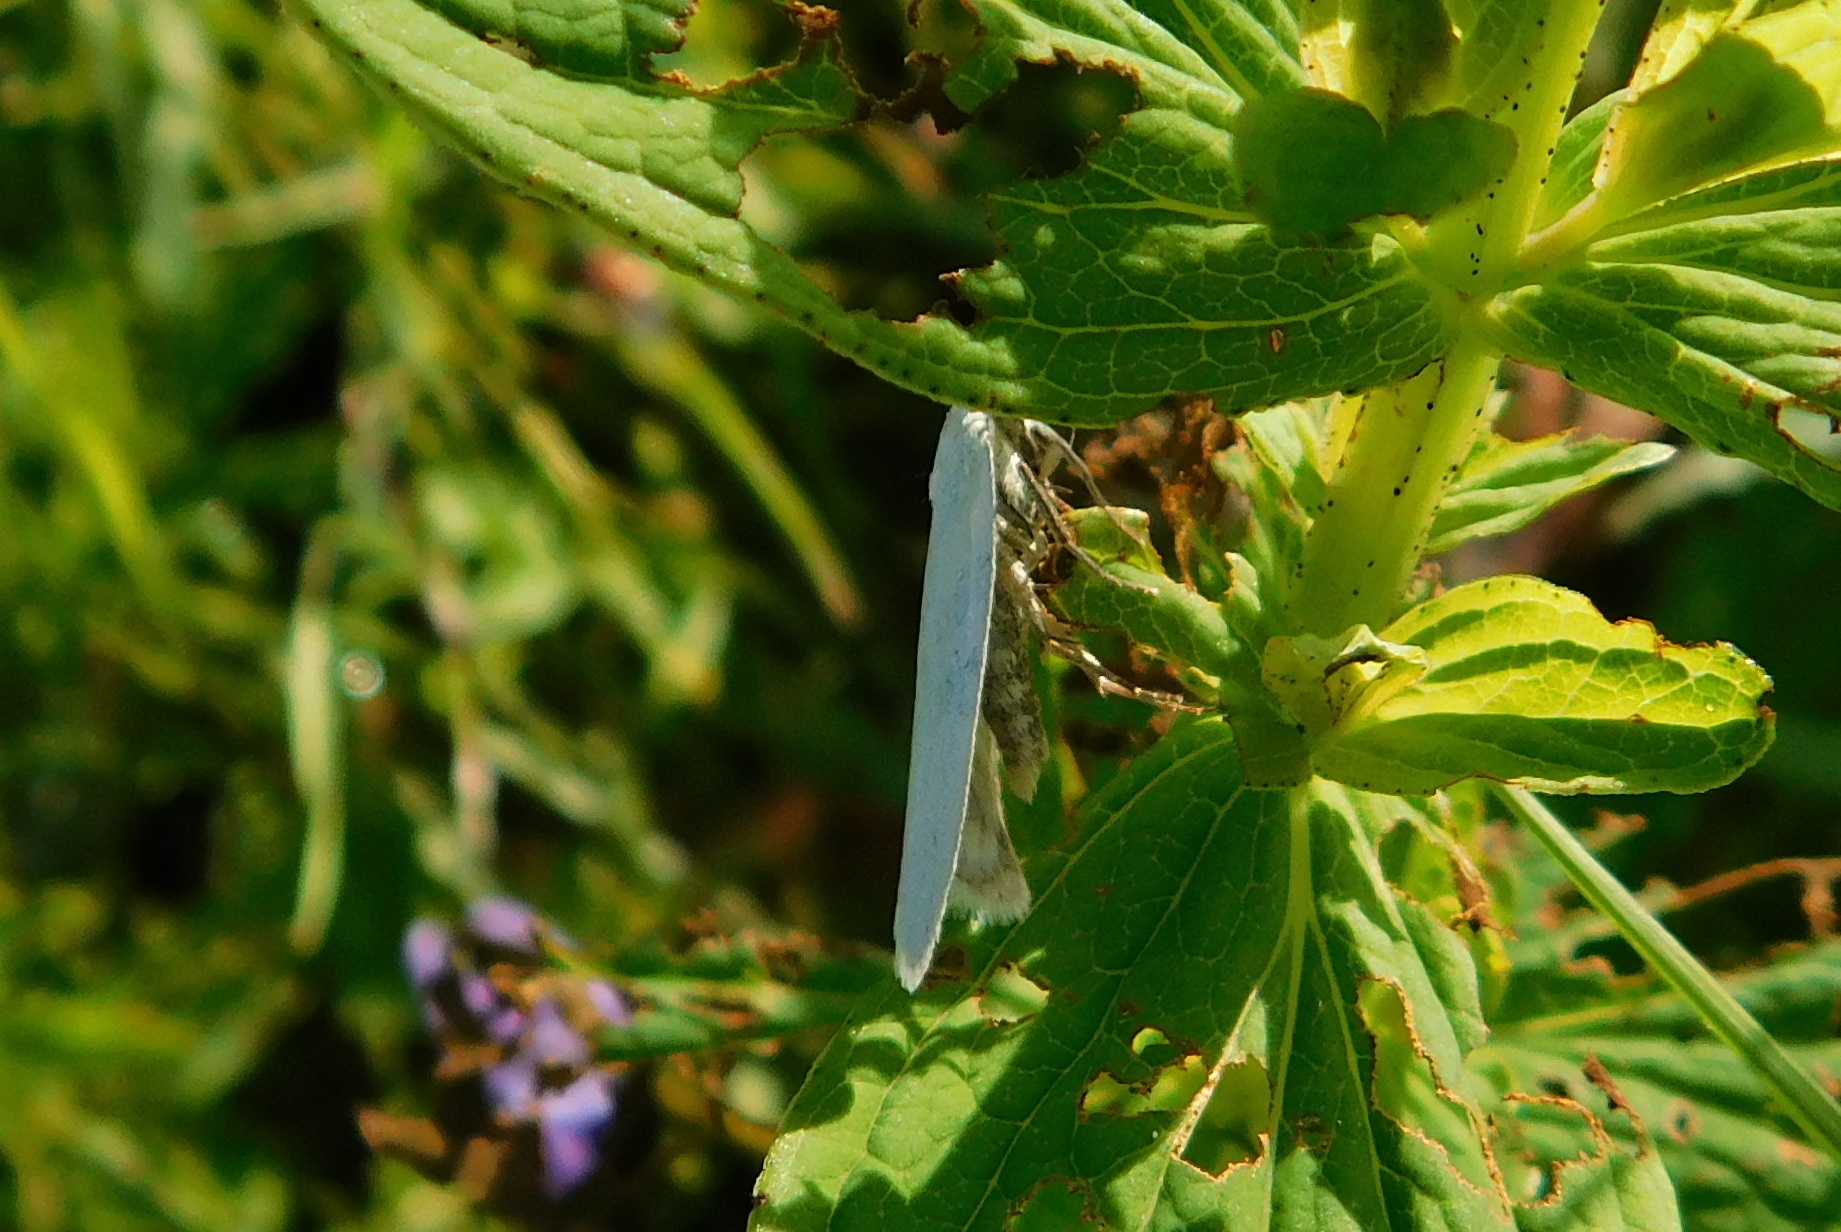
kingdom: Animalia
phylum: Arthropoda
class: Insecta
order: Lepidoptera
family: Tortricidae
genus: Eana
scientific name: Eana argentana
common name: Silver shade
